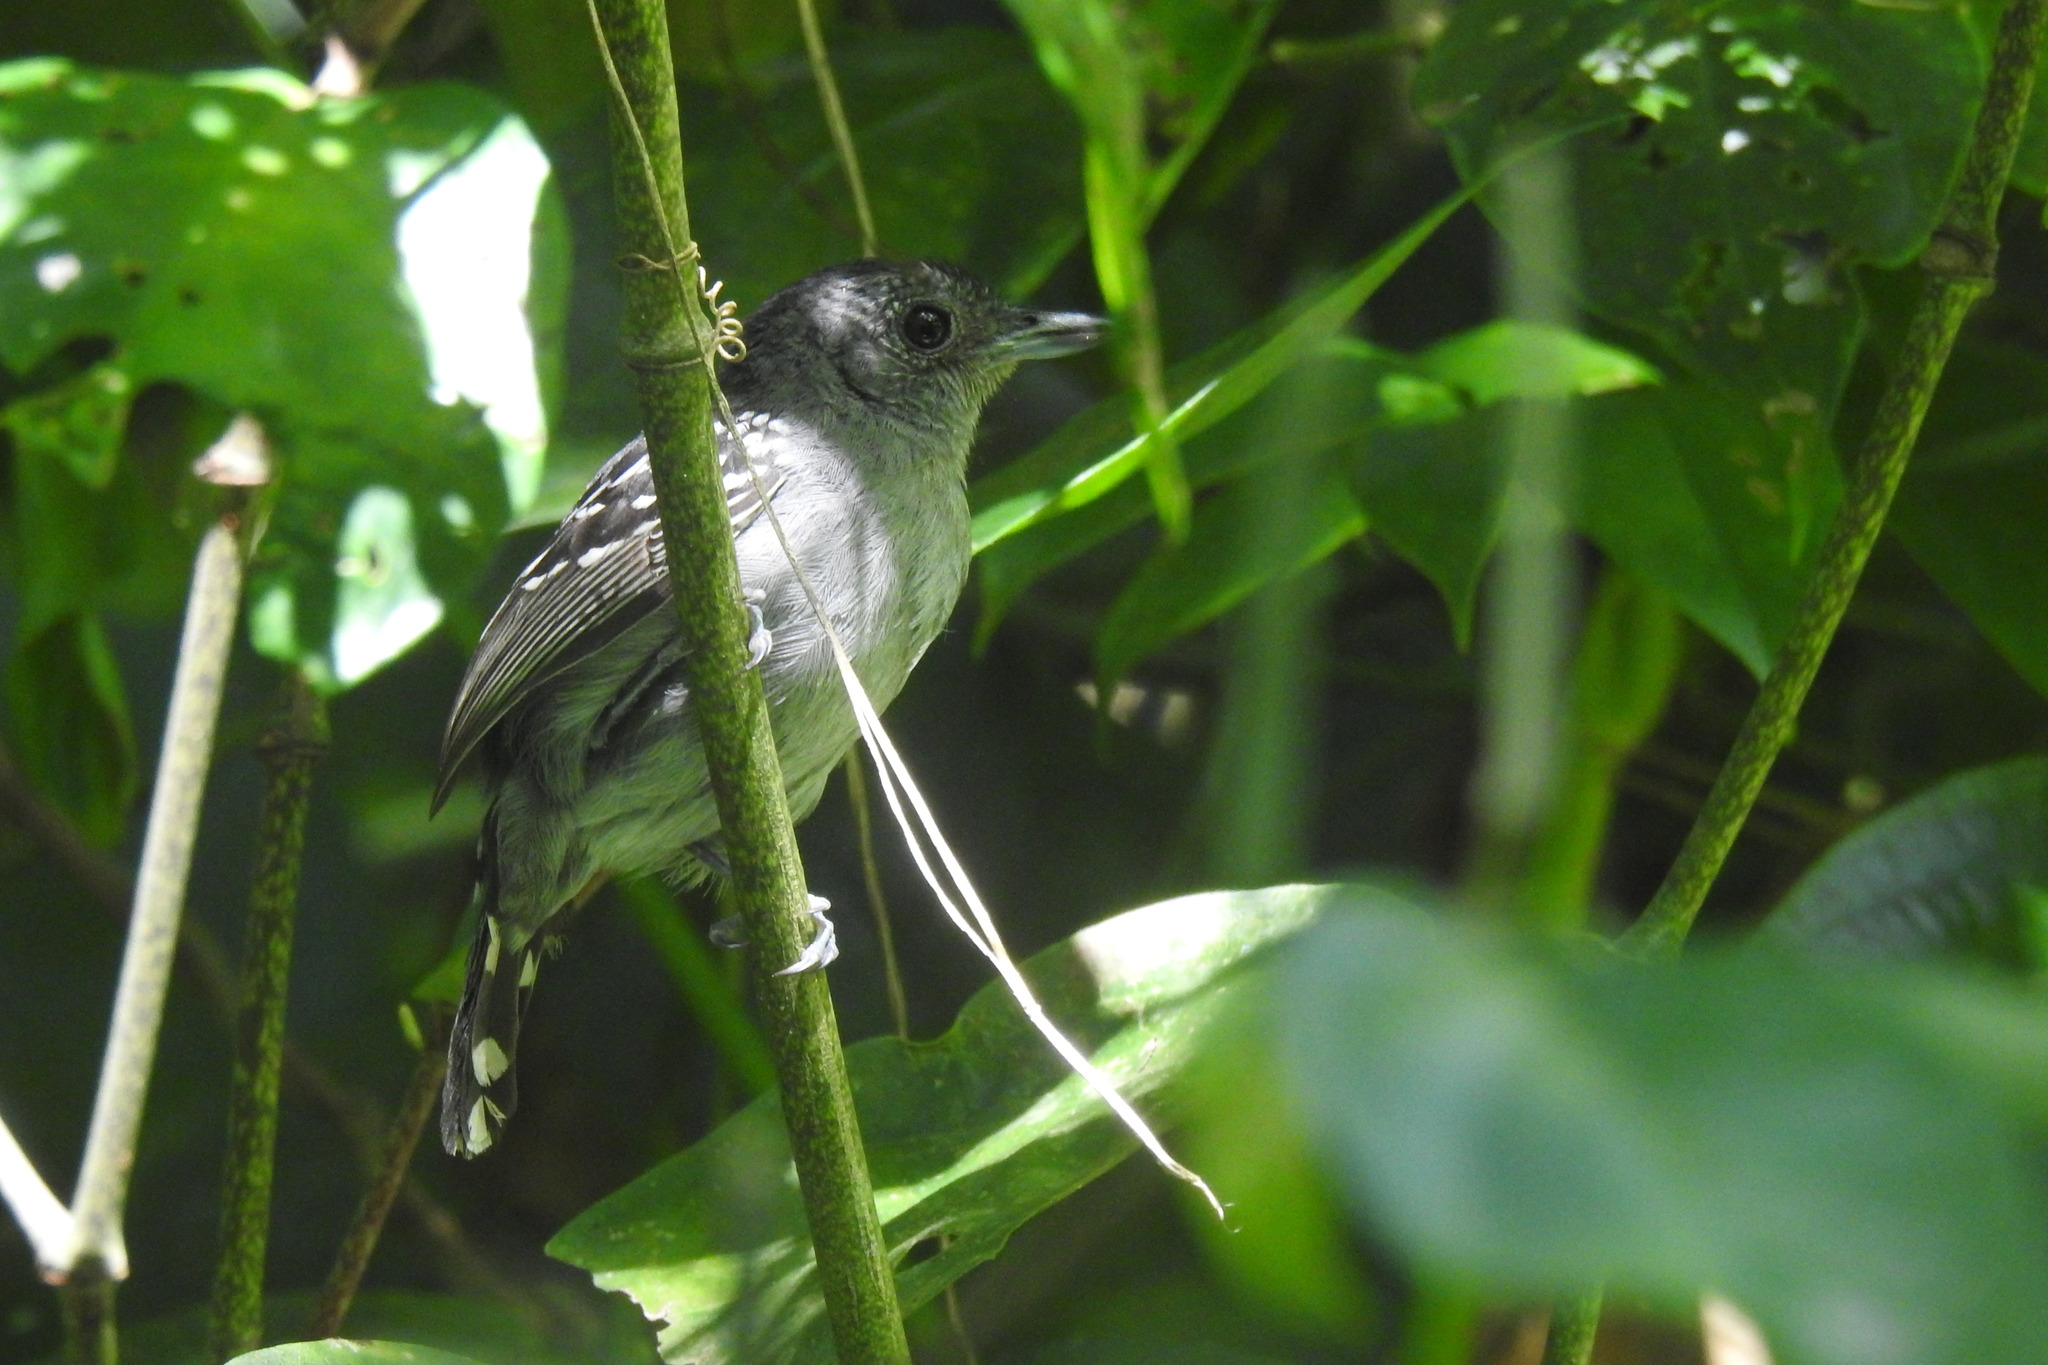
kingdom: Animalia
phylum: Chordata
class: Aves
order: Passeriformes
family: Thamnophilidae
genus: Thamnophilus
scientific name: Thamnophilus atrinucha
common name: Black-crowned antshrike
